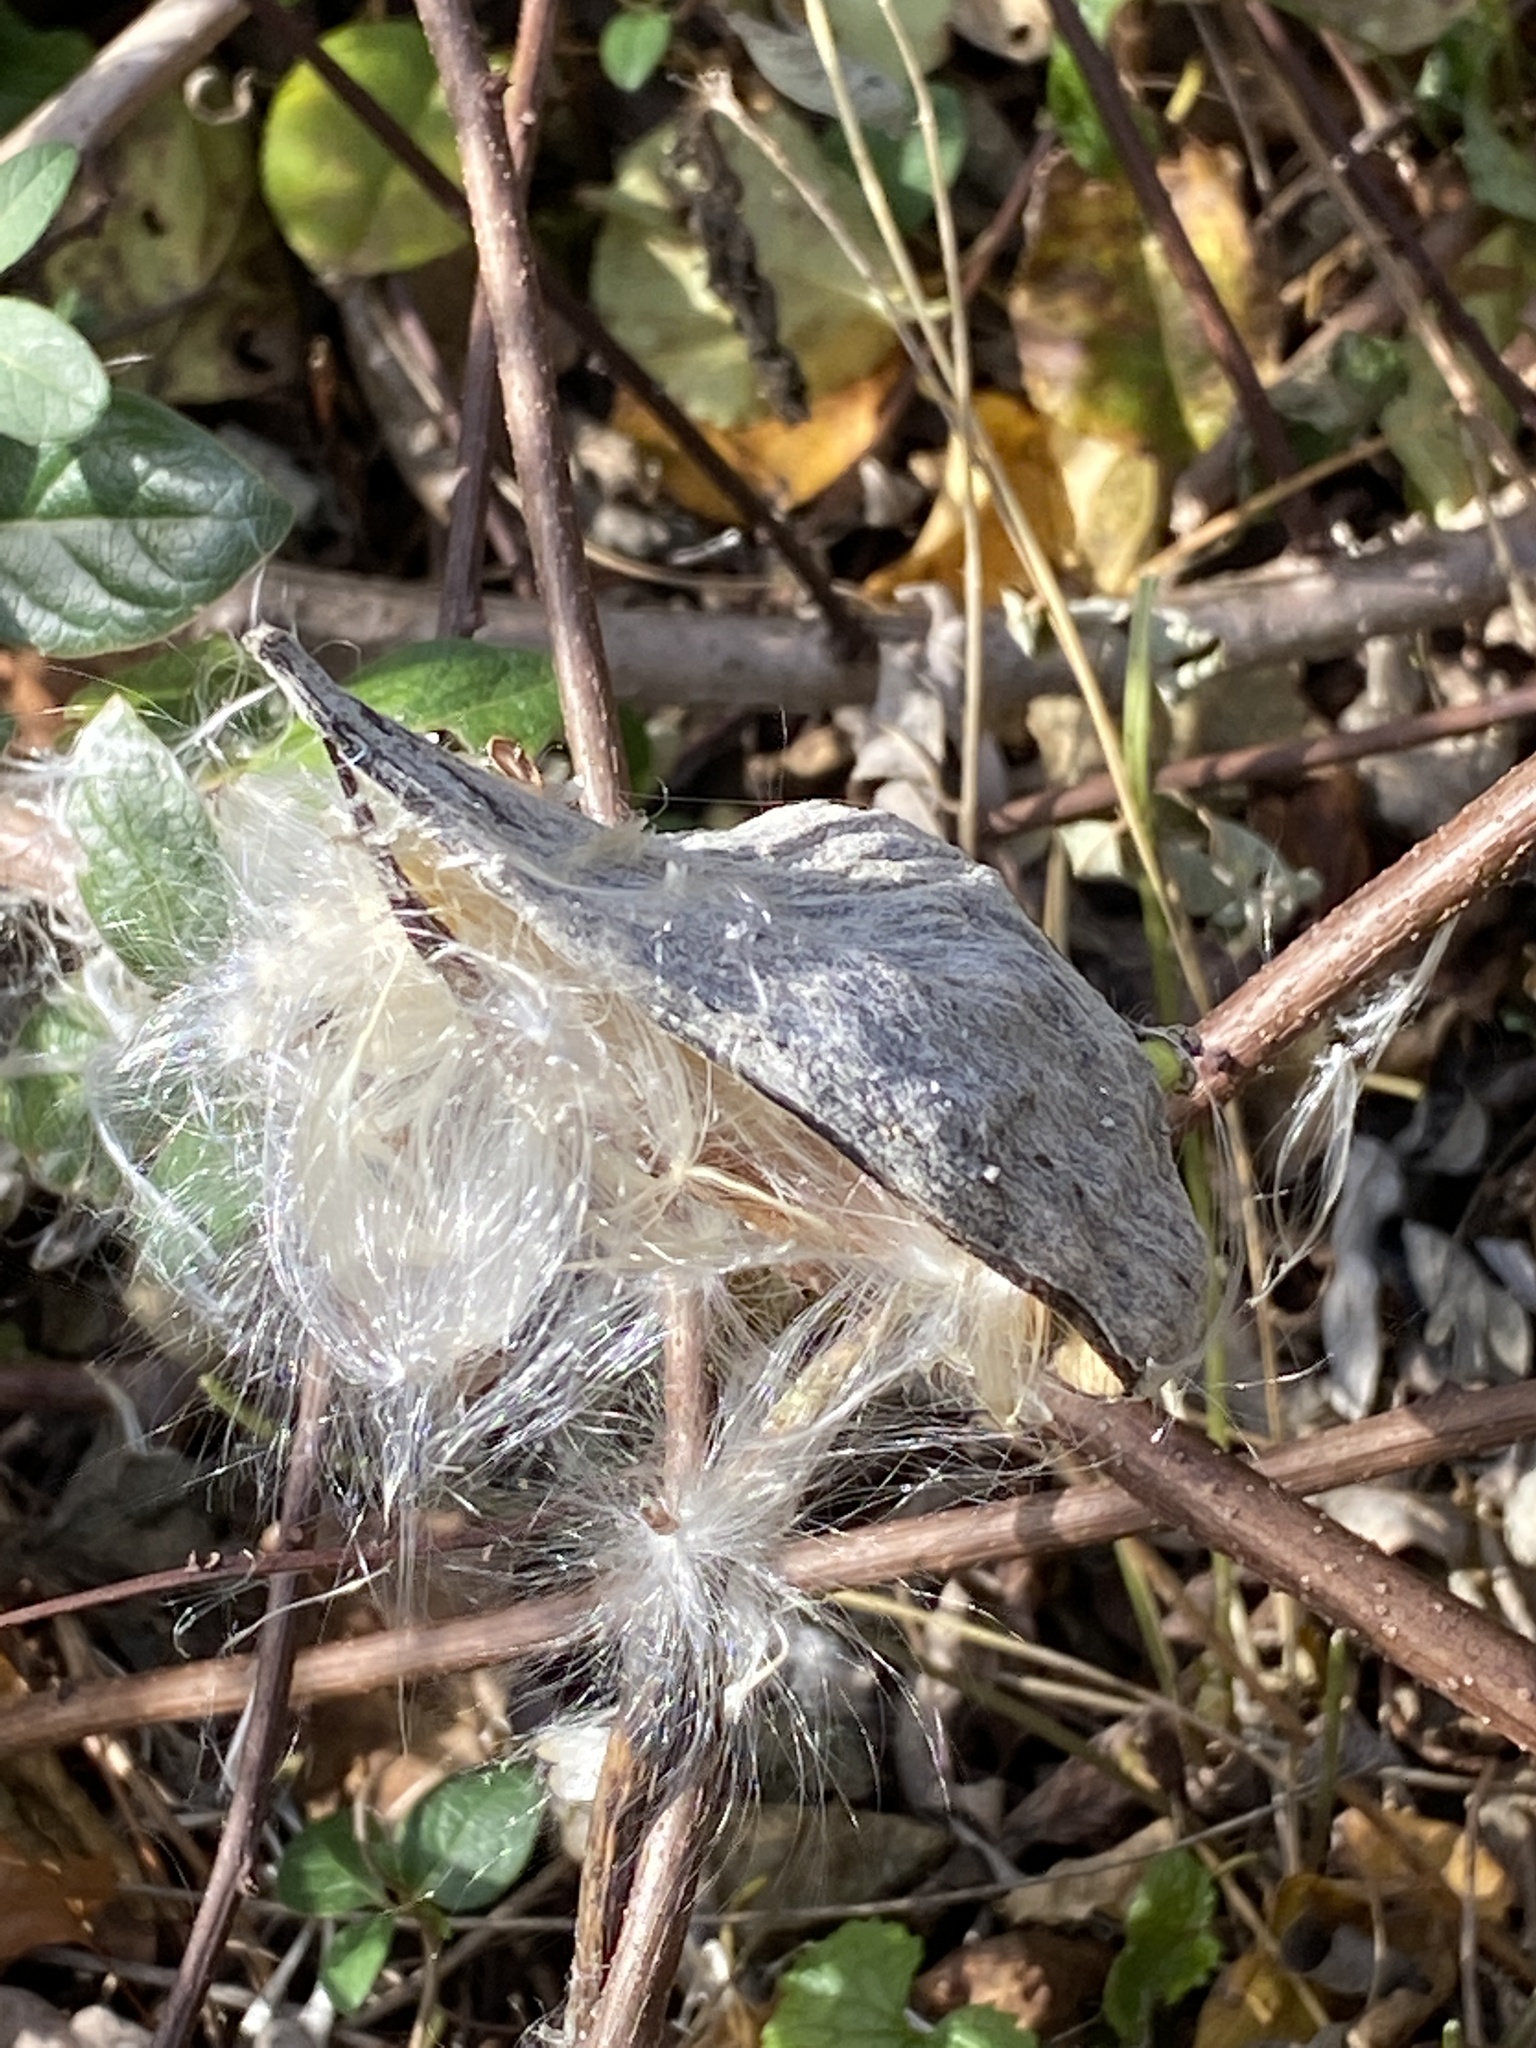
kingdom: Plantae
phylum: Tracheophyta
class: Magnoliopsida
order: Gentianales
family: Apocynaceae
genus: Asclepias
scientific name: Asclepias syriaca
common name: Common milkweed
